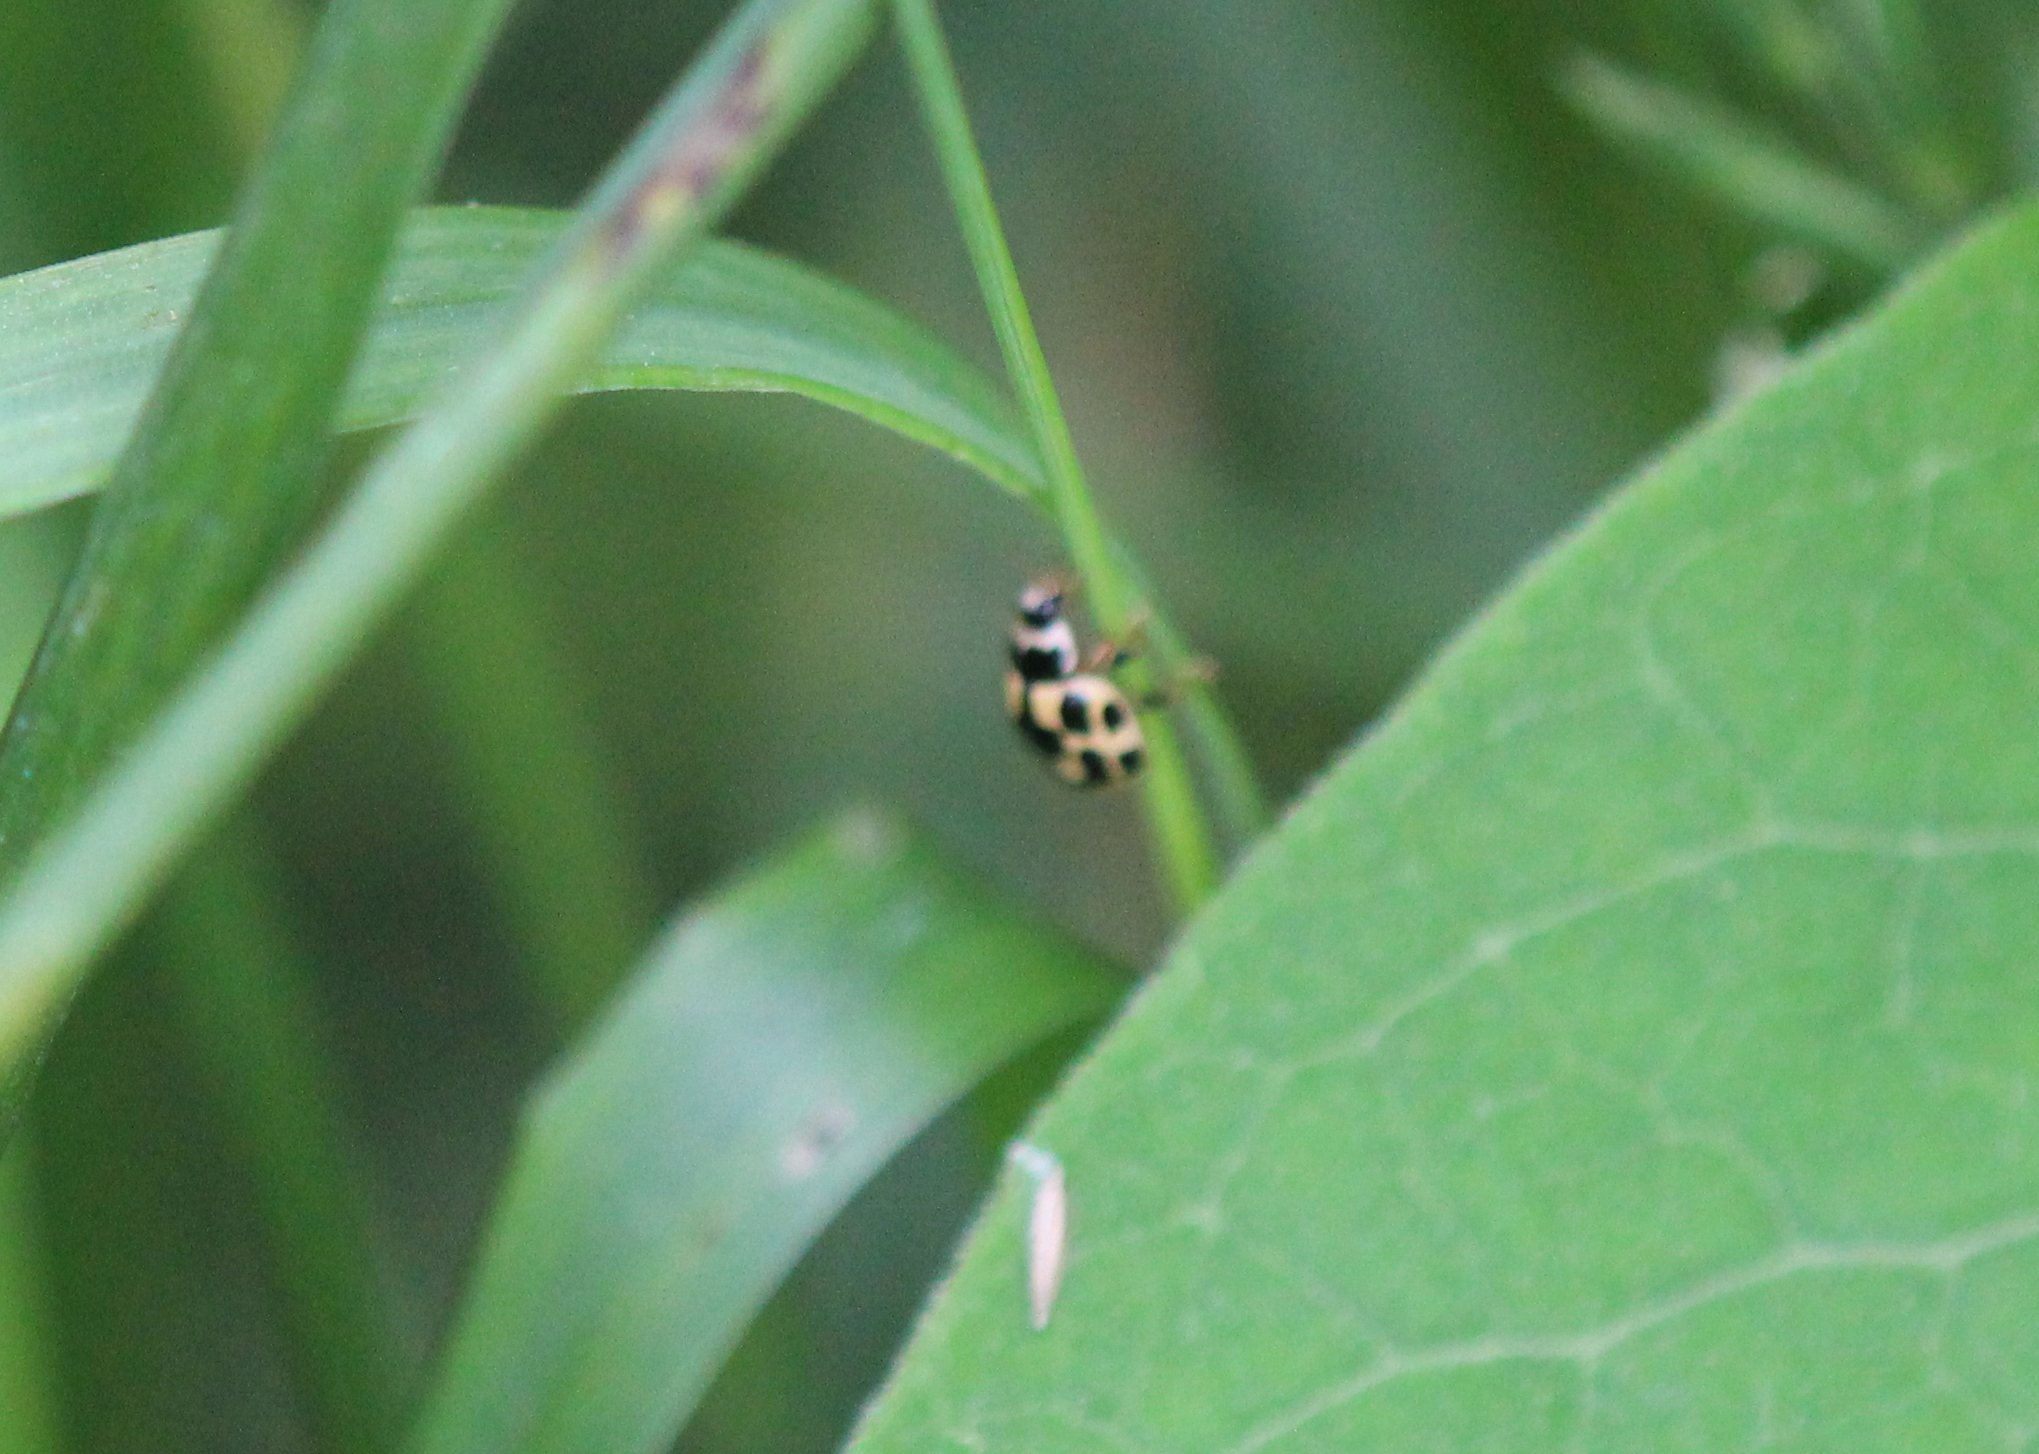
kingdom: Animalia
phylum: Arthropoda
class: Insecta
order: Coleoptera
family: Coccinellidae
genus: Propylaea
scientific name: Propylaea quatuordecimpunctata
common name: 14-spotted ladybird beetle
